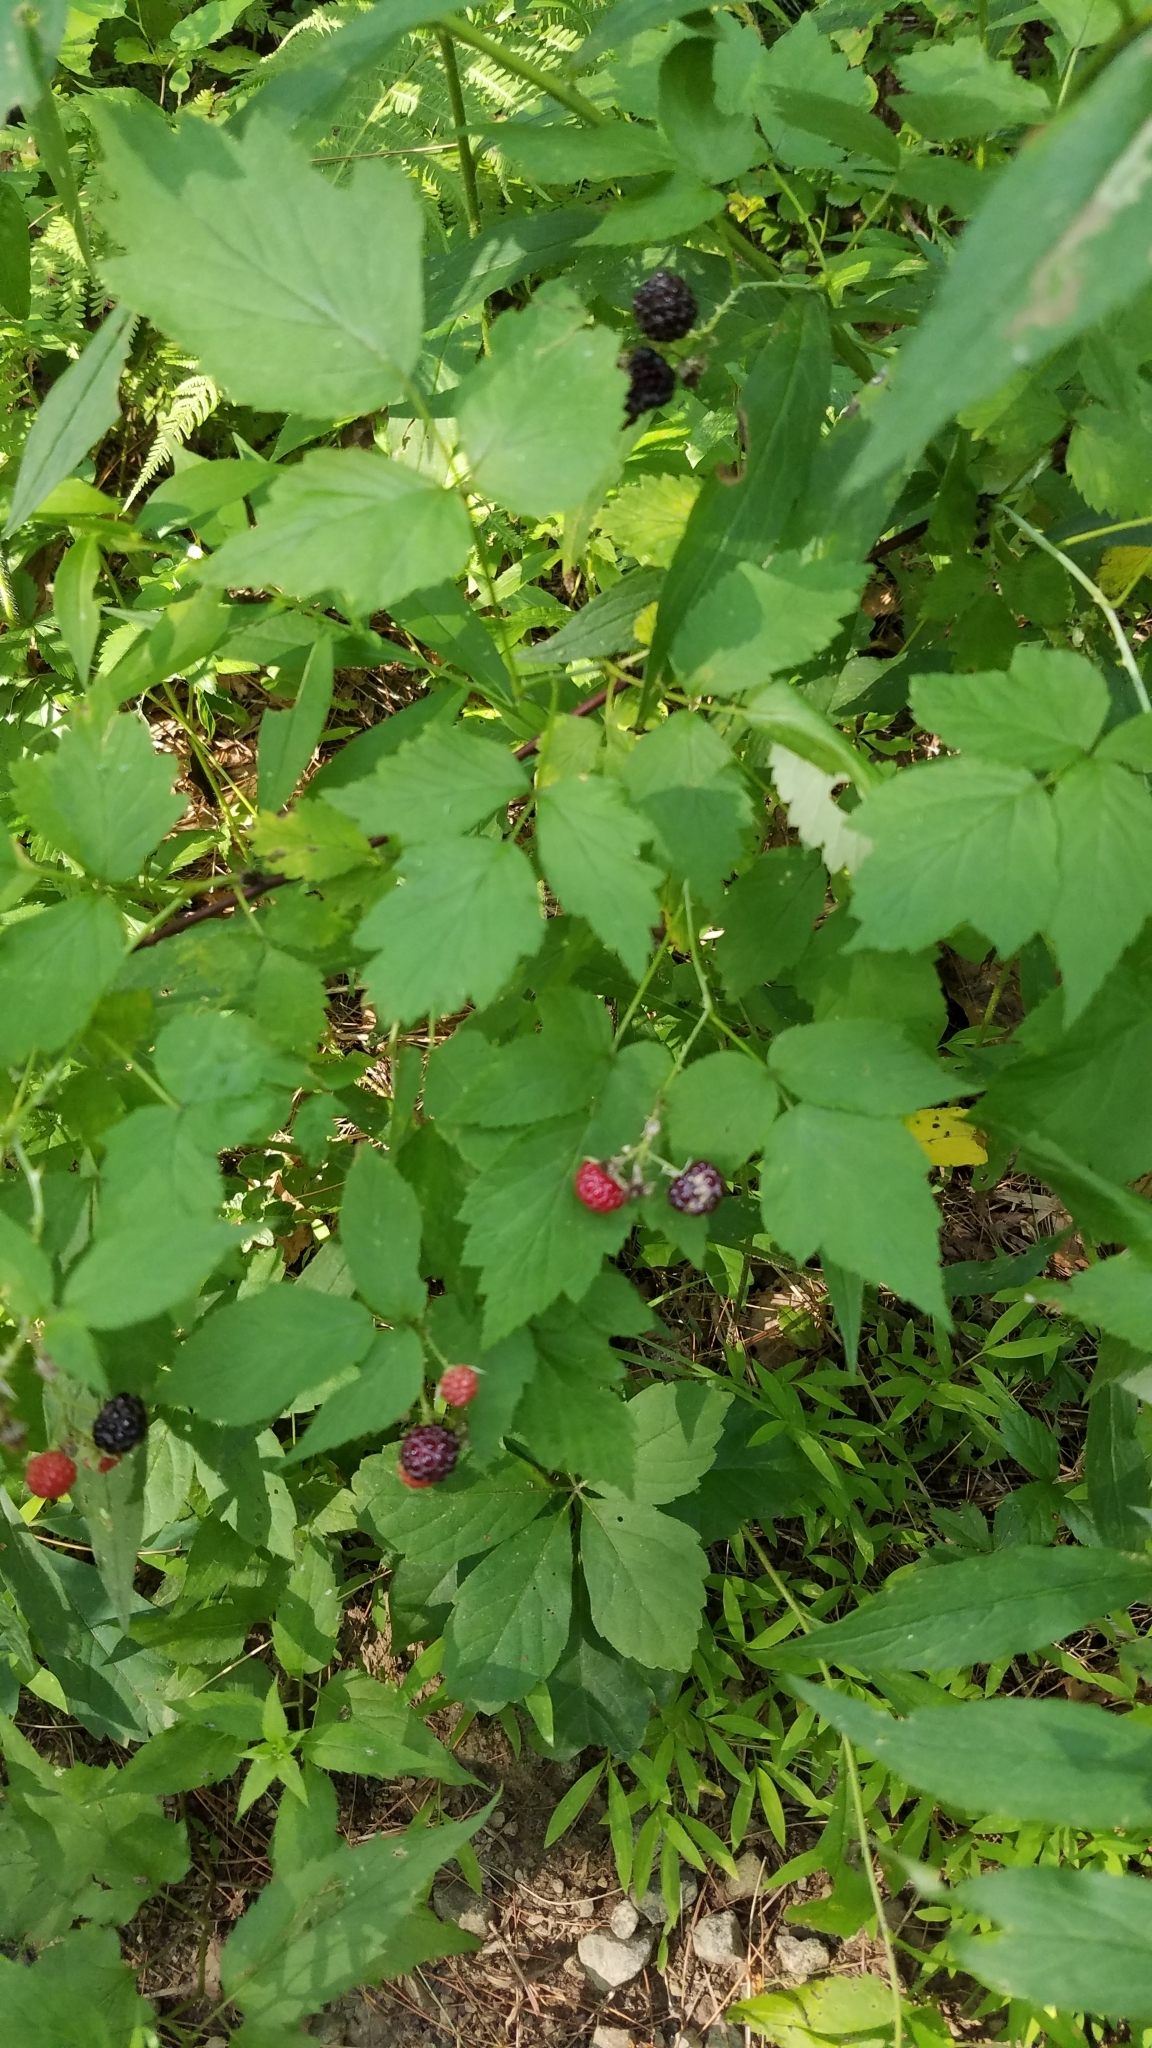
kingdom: Plantae
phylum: Tracheophyta
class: Magnoliopsida
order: Rosales
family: Rosaceae
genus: Rubus
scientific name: Rubus occidentalis
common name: Black raspberry
